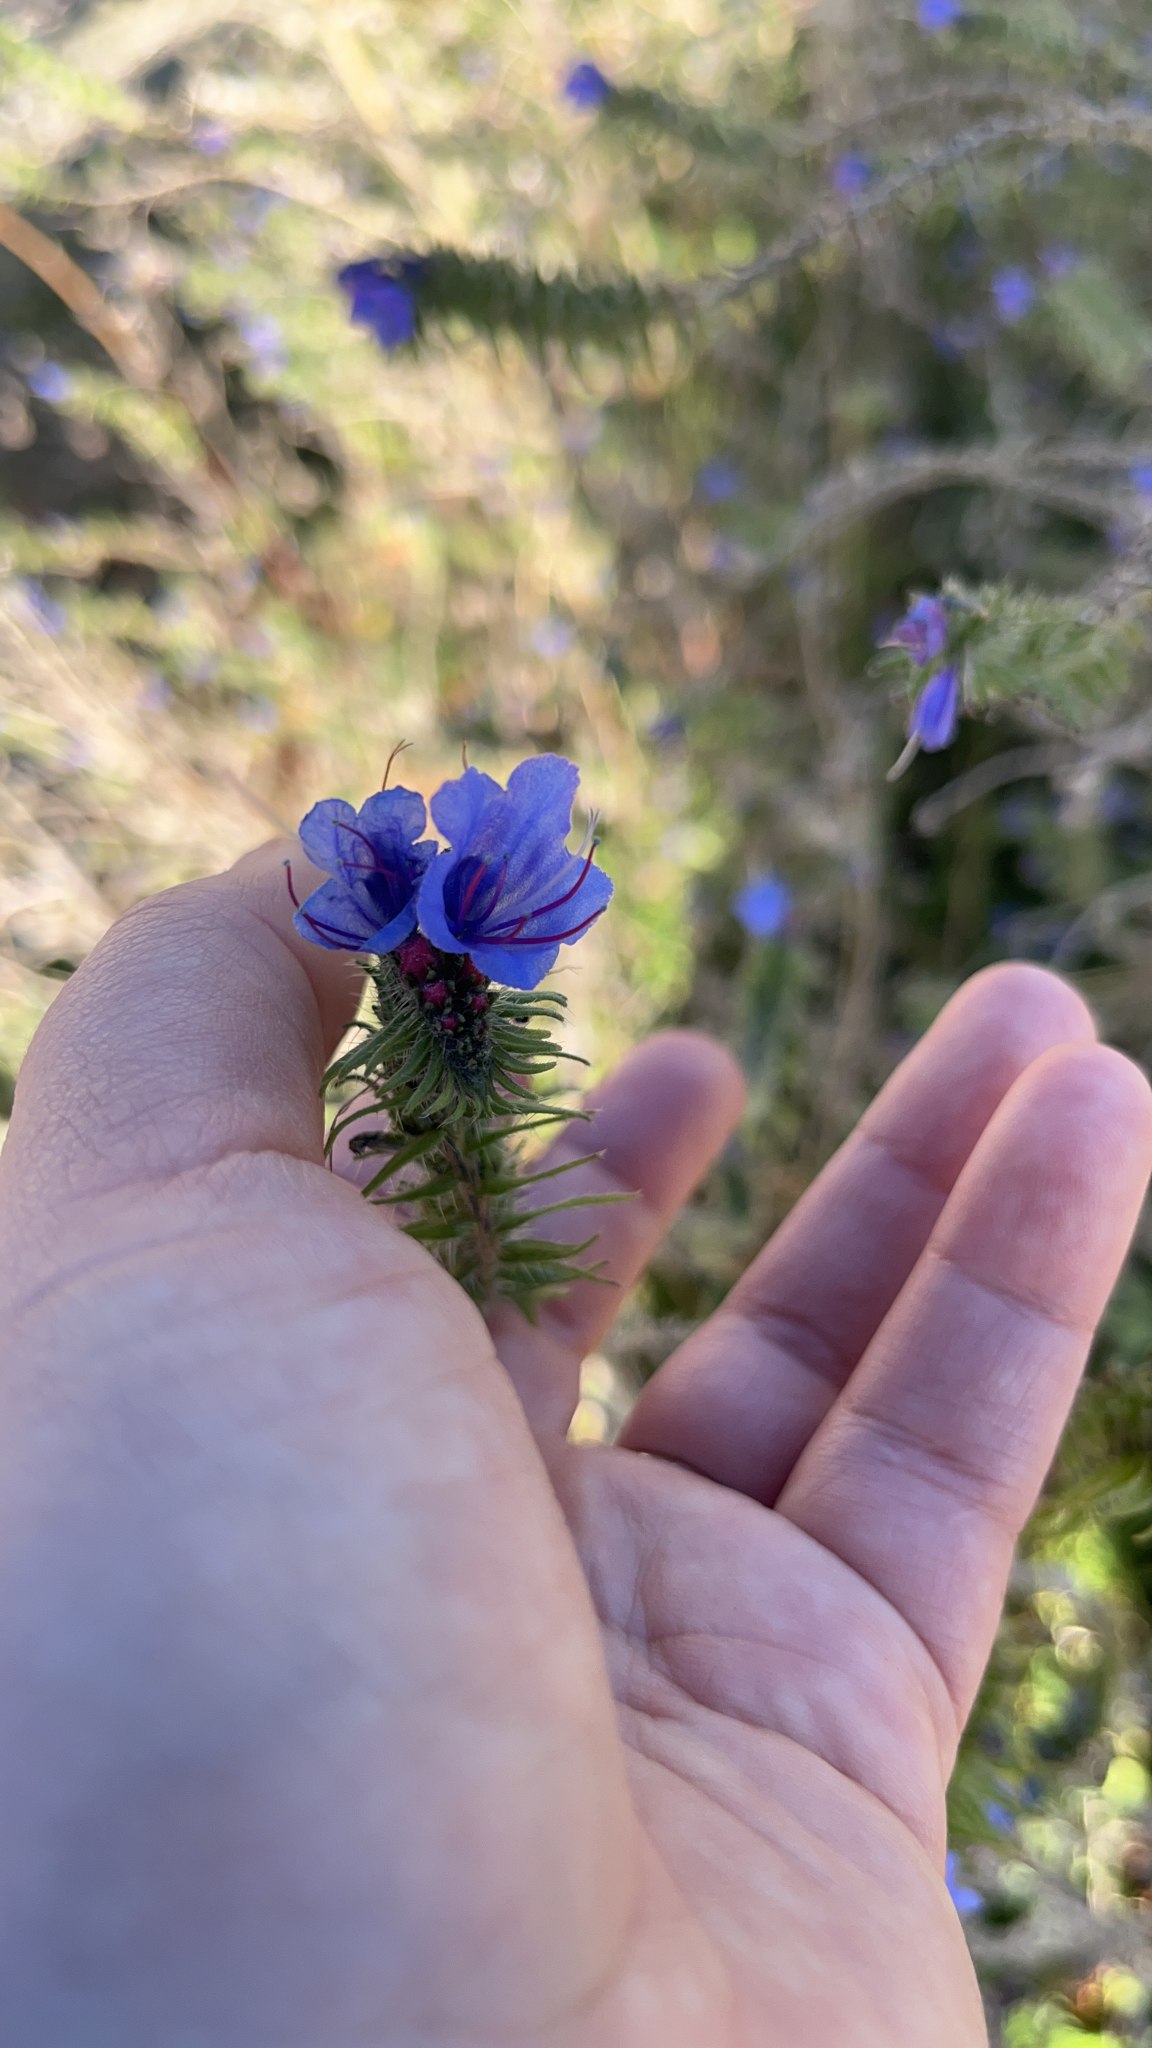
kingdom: Plantae
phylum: Tracheophyta
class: Magnoliopsida
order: Boraginales
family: Boraginaceae
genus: Echium
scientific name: Echium vulgare
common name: Common viper's bugloss
